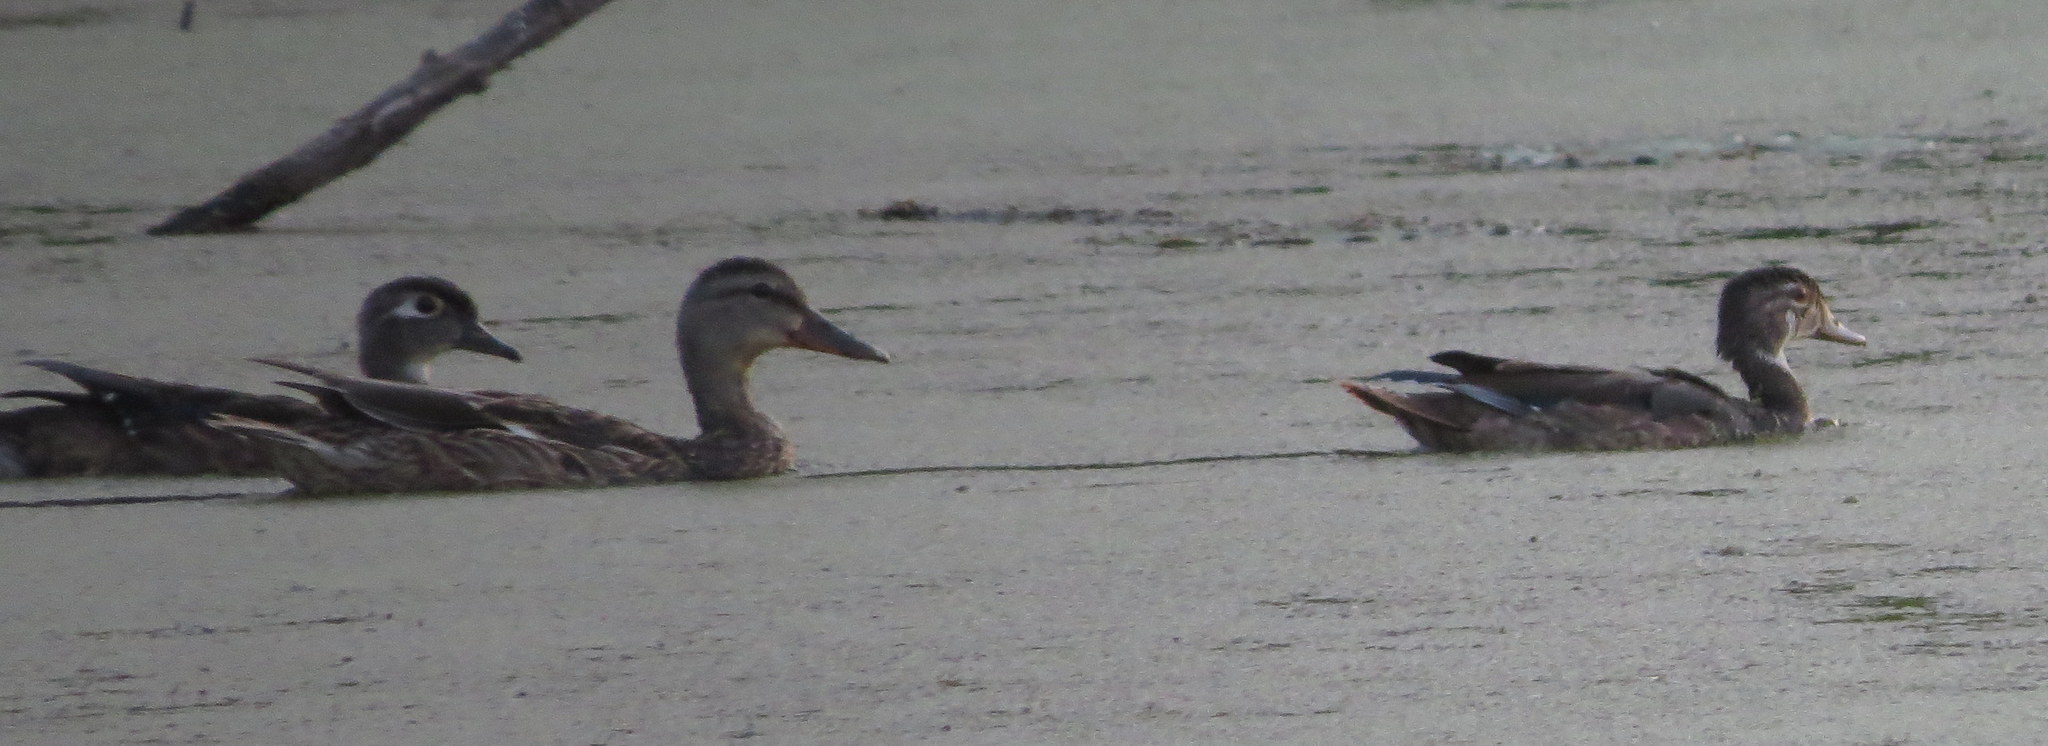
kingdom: Animalia
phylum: Chordata
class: Aves
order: Anseriformes
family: Anatidae
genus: Aix
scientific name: Aix sponsa
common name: Wood duck
